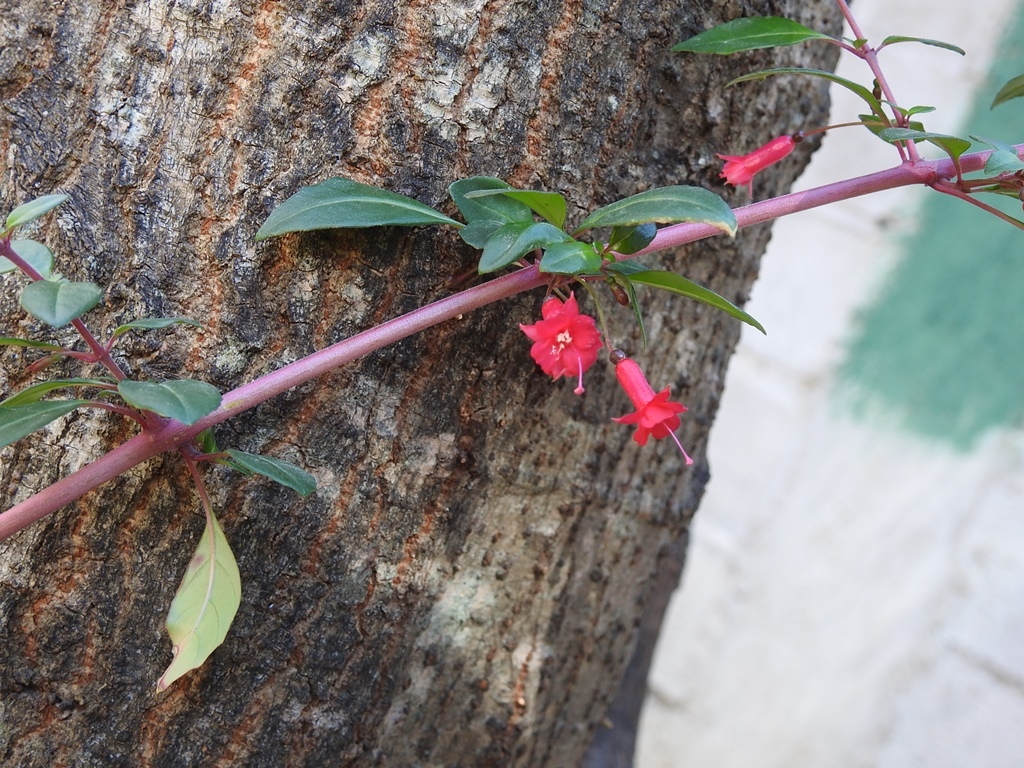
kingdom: Plantae
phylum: Tracheophyta
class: Magnoliopsida
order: Myrtales
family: Onagraceae
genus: Fuchsia
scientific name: Fuchsia thymifolia
